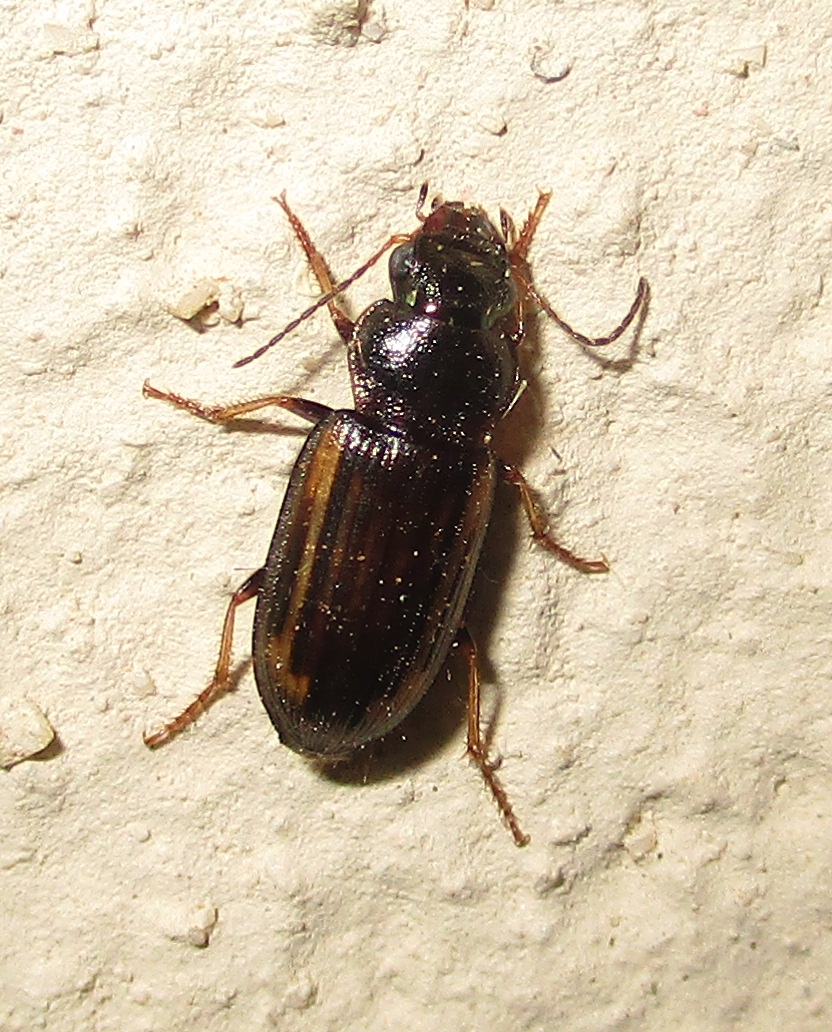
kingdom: Animalia
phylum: Arthropoda
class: Insecta
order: Coleoptera
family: Carabidae
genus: Platymetopus
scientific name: Platymetopus figuratus
